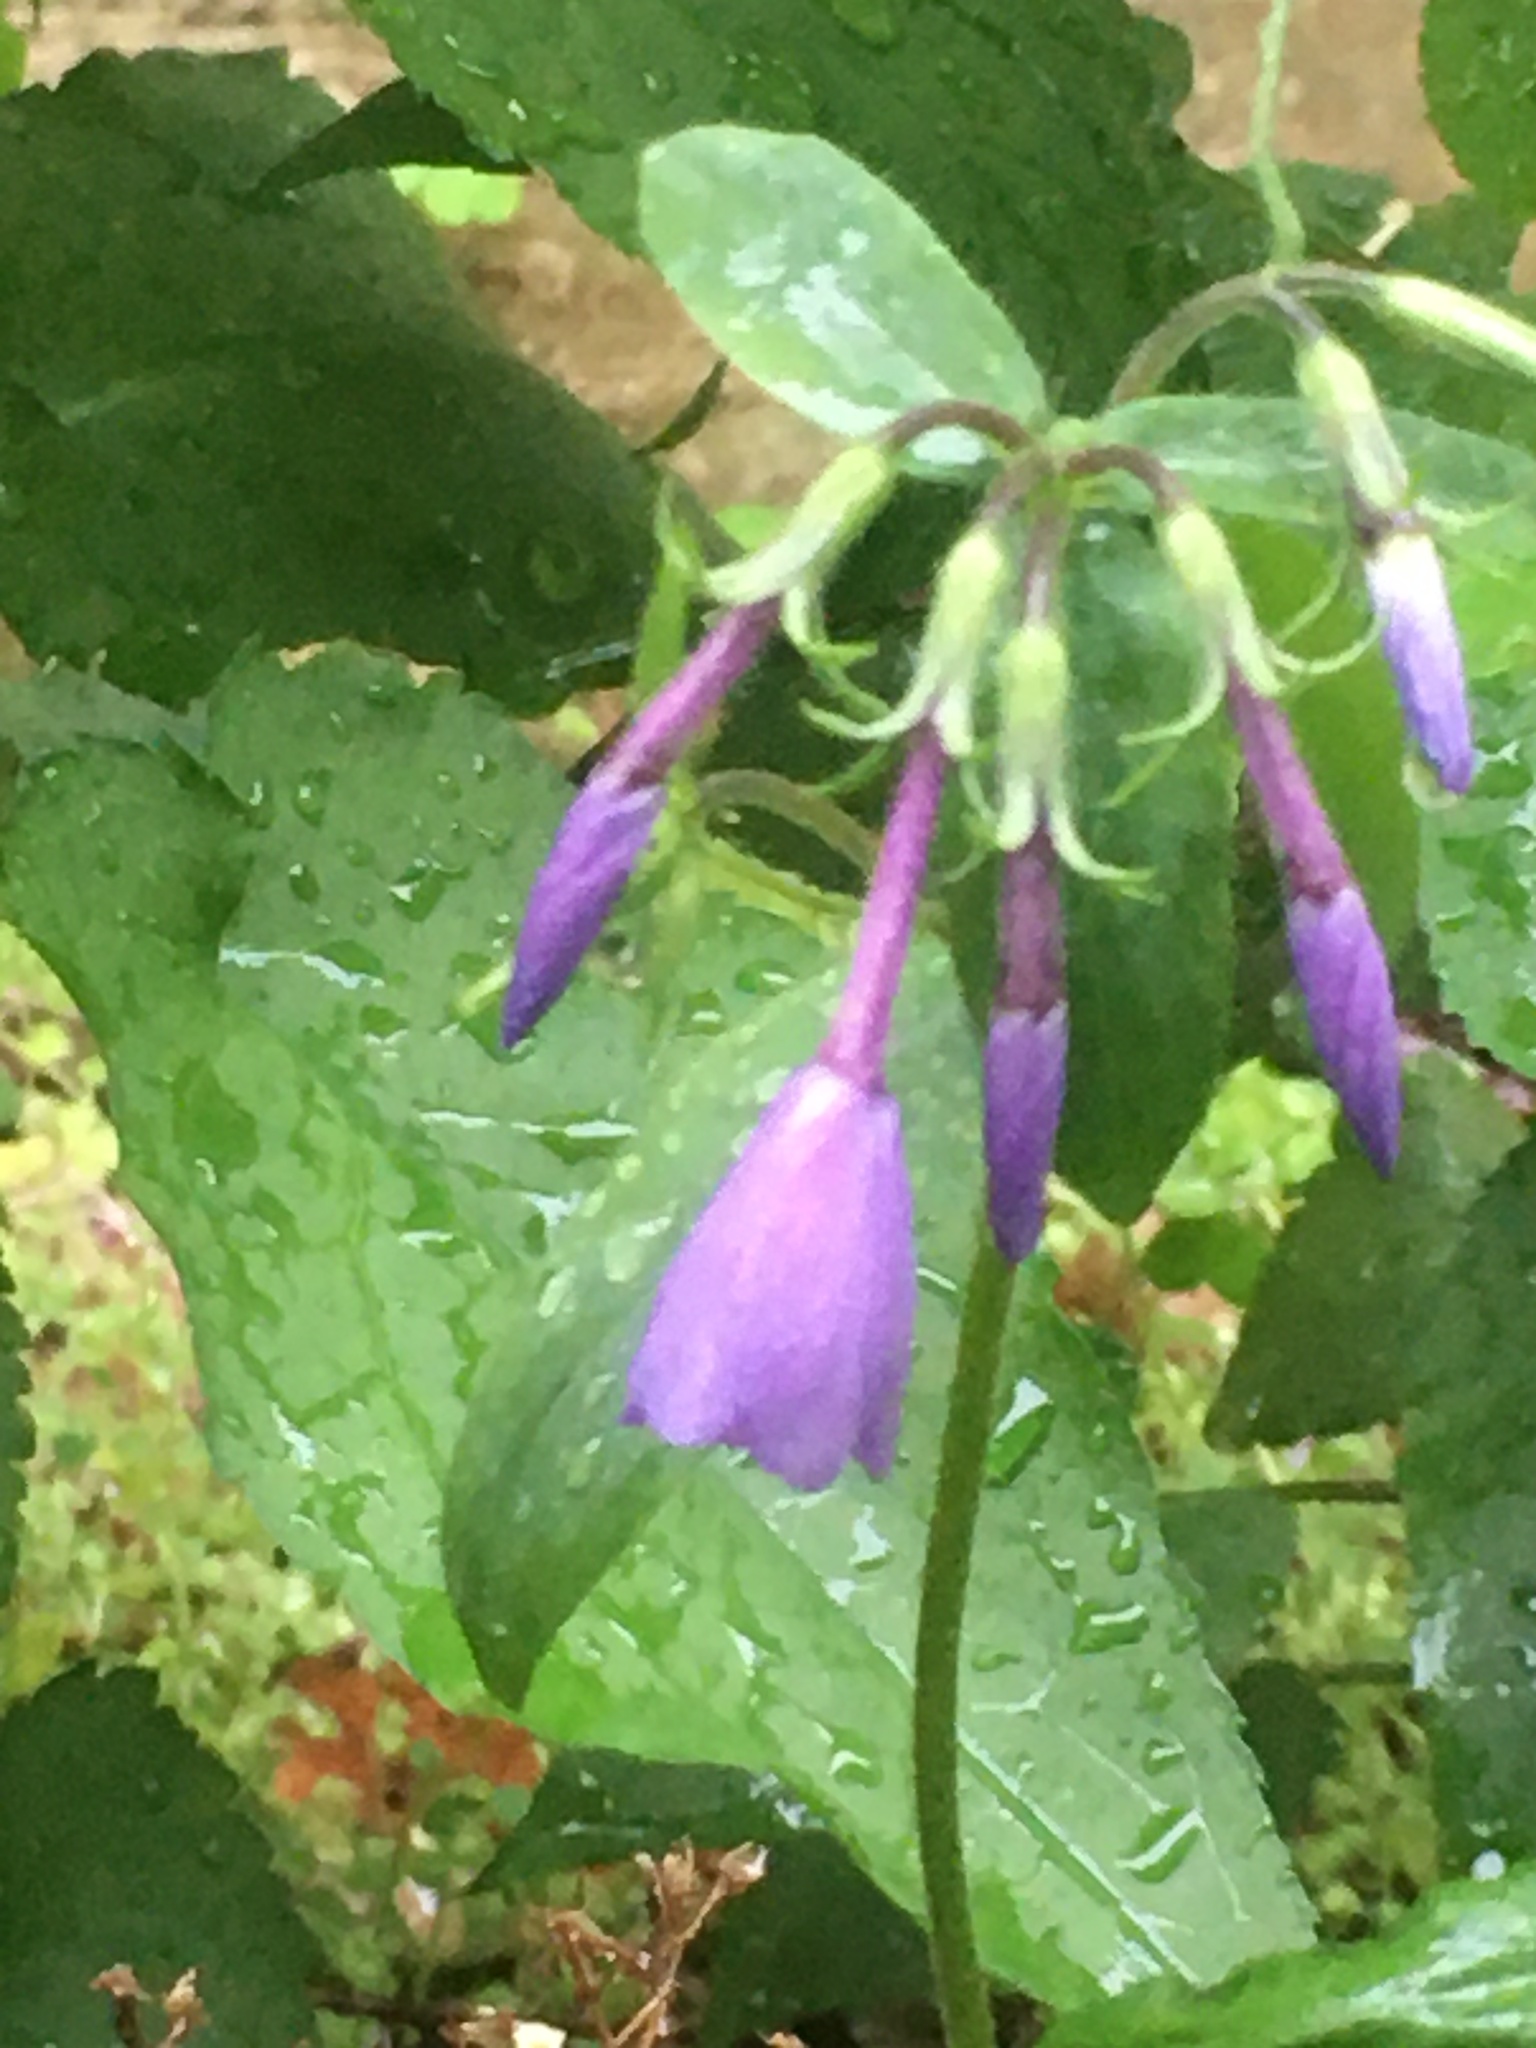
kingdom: Plantae
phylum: Tracheophyta
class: Magnoliopsida
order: Ericales
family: Polemoniaceae
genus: Phlox
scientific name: Phlox stolonifera
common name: Creeping phlox
